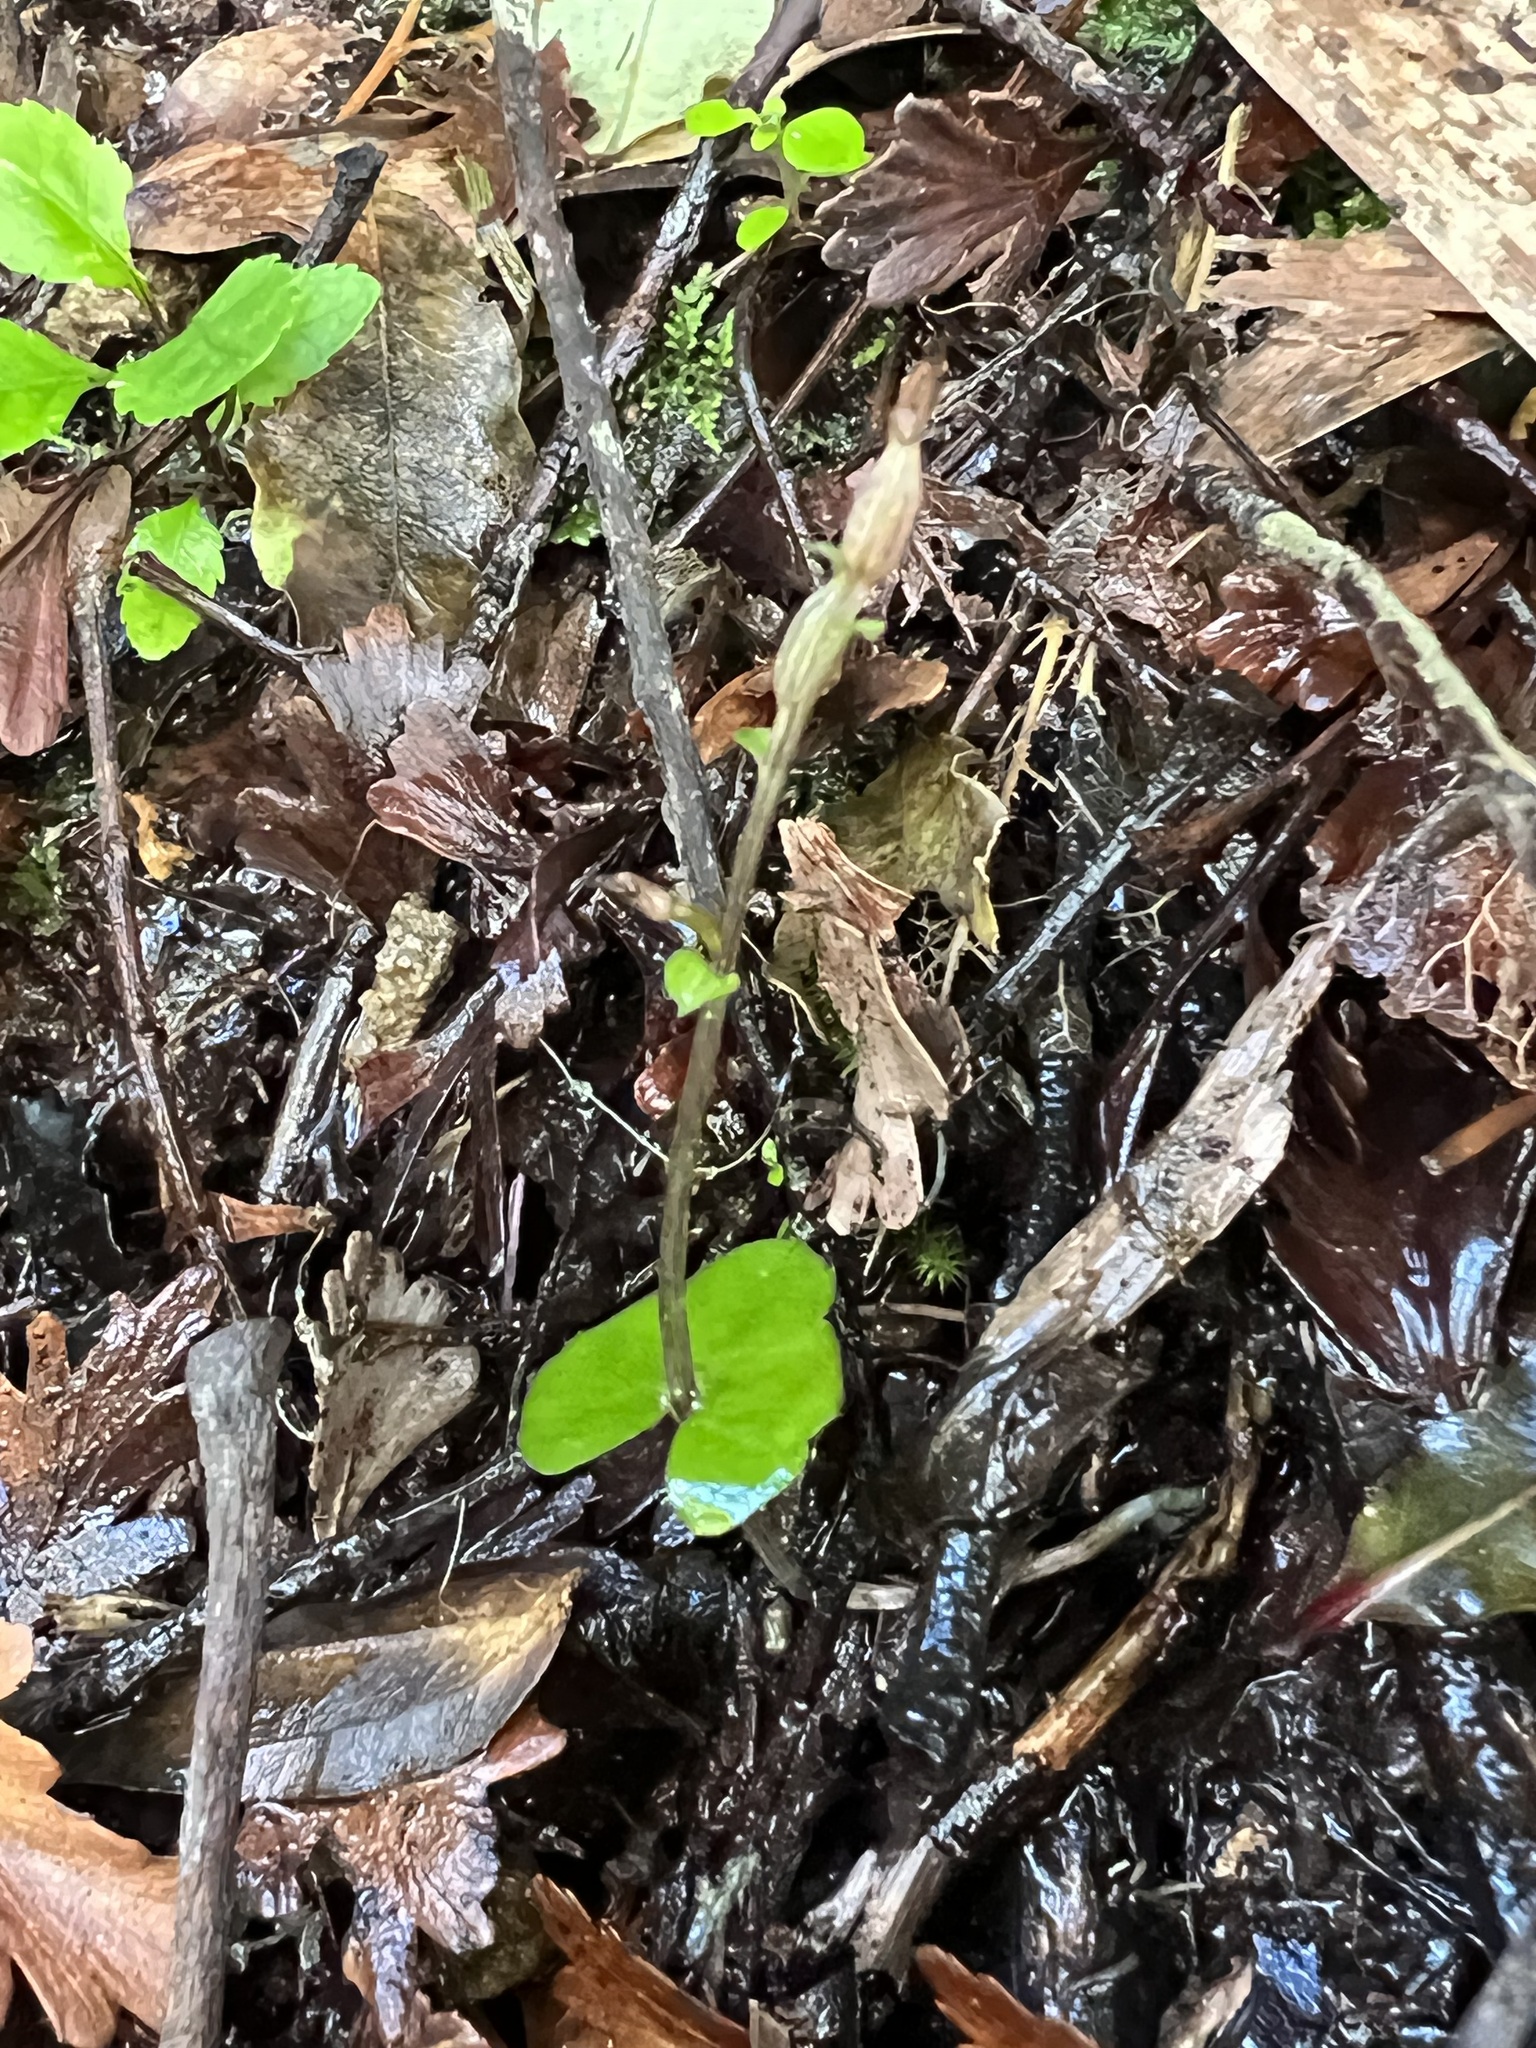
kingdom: Plantae
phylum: Tracheophyta
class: Liliopsida
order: Asparagales
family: Orchidaceae
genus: Acianthus
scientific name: Acianthus sinclairii
